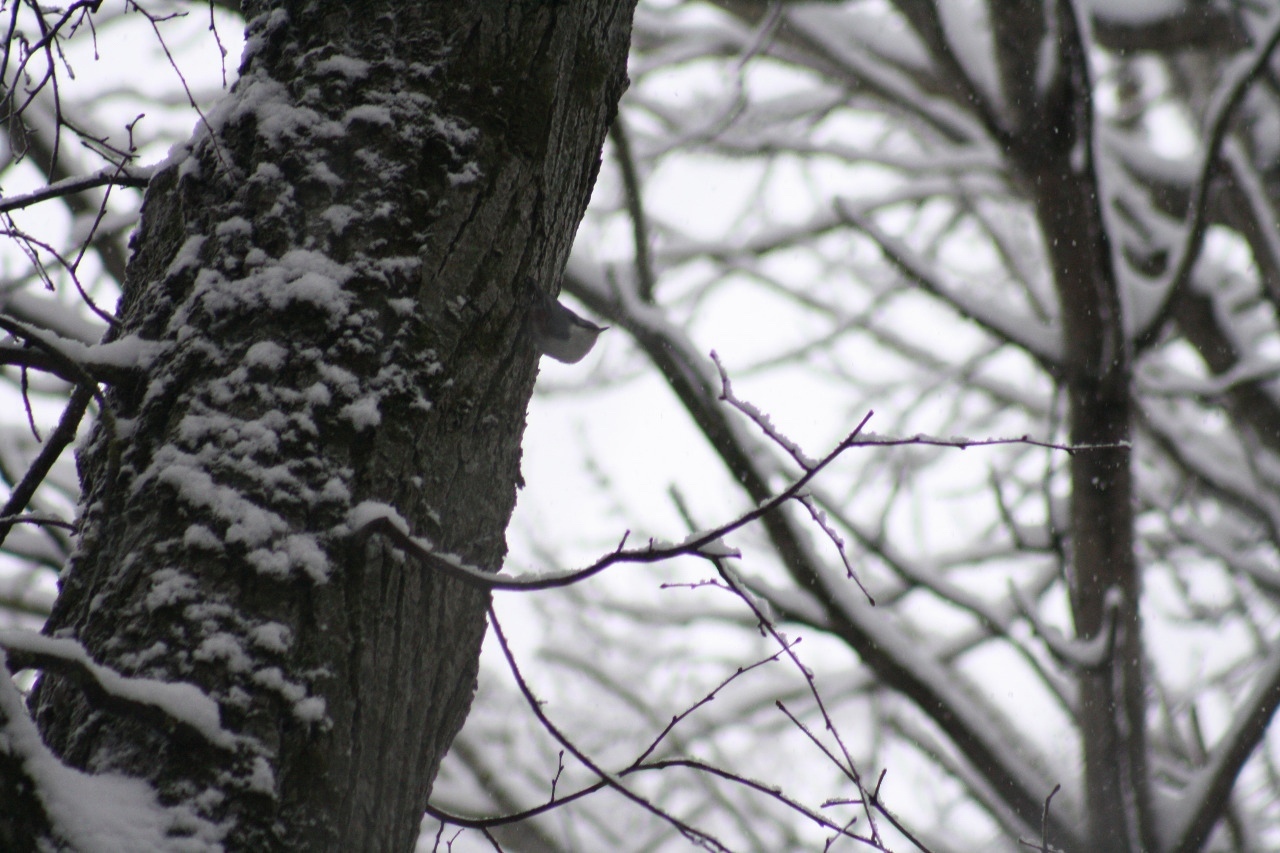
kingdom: Animalia
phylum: Chordata
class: Aves
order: Passeriformes
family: Sittidae
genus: Sitta
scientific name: Sitta europaea
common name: Eurasian nuthatch
